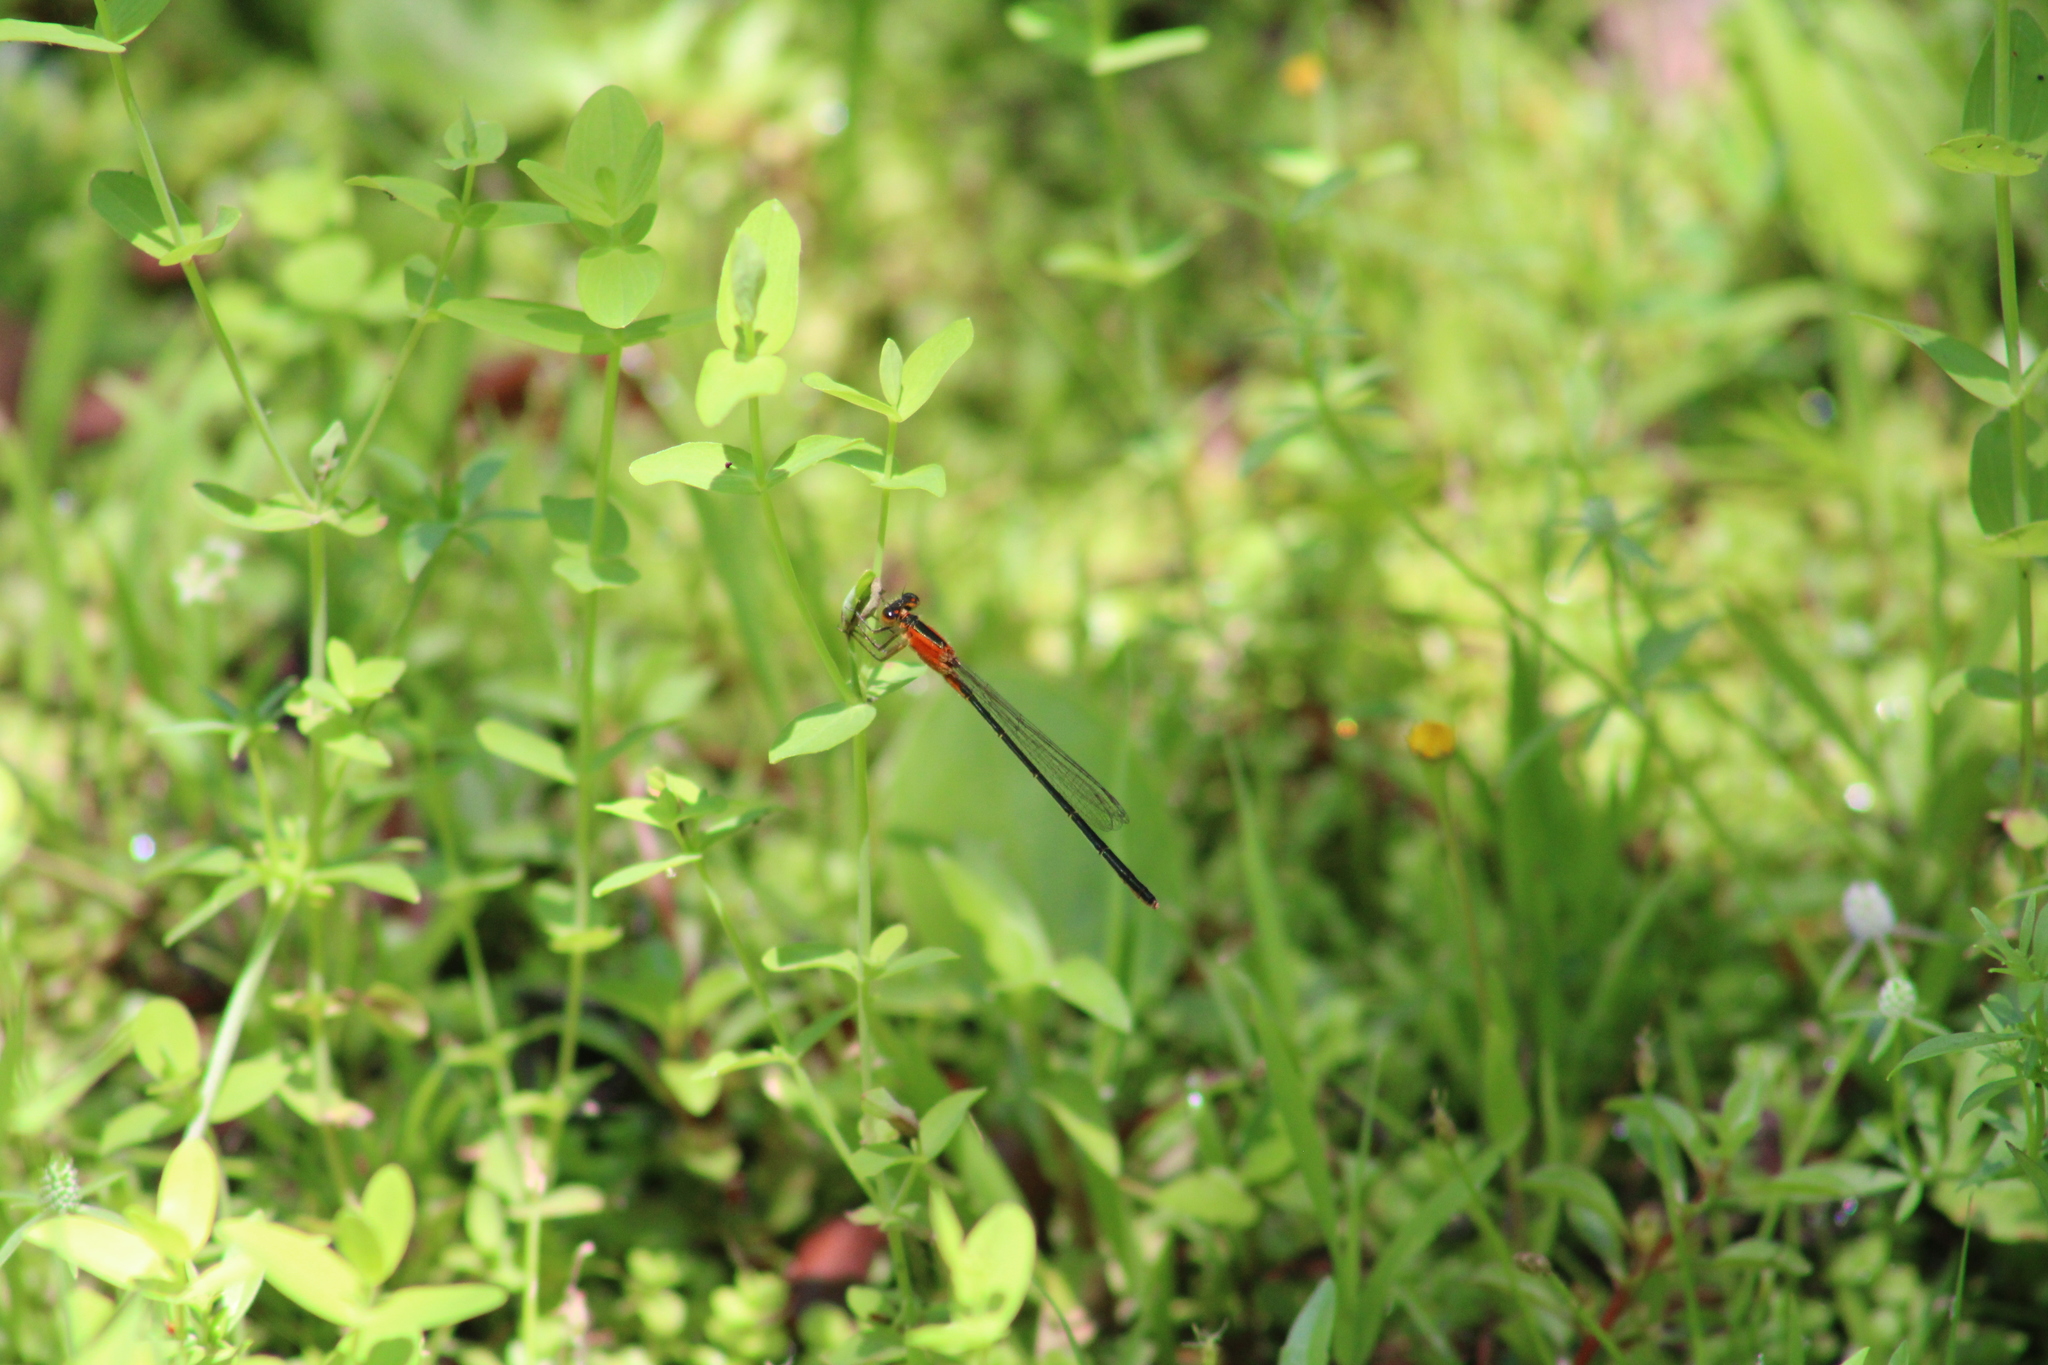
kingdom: Animalia
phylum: Arthropoda
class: Insecta
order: Odonata
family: Coenagrionidae
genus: Ischnura
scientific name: Ischnura ramburii
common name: Rambur's forktail
